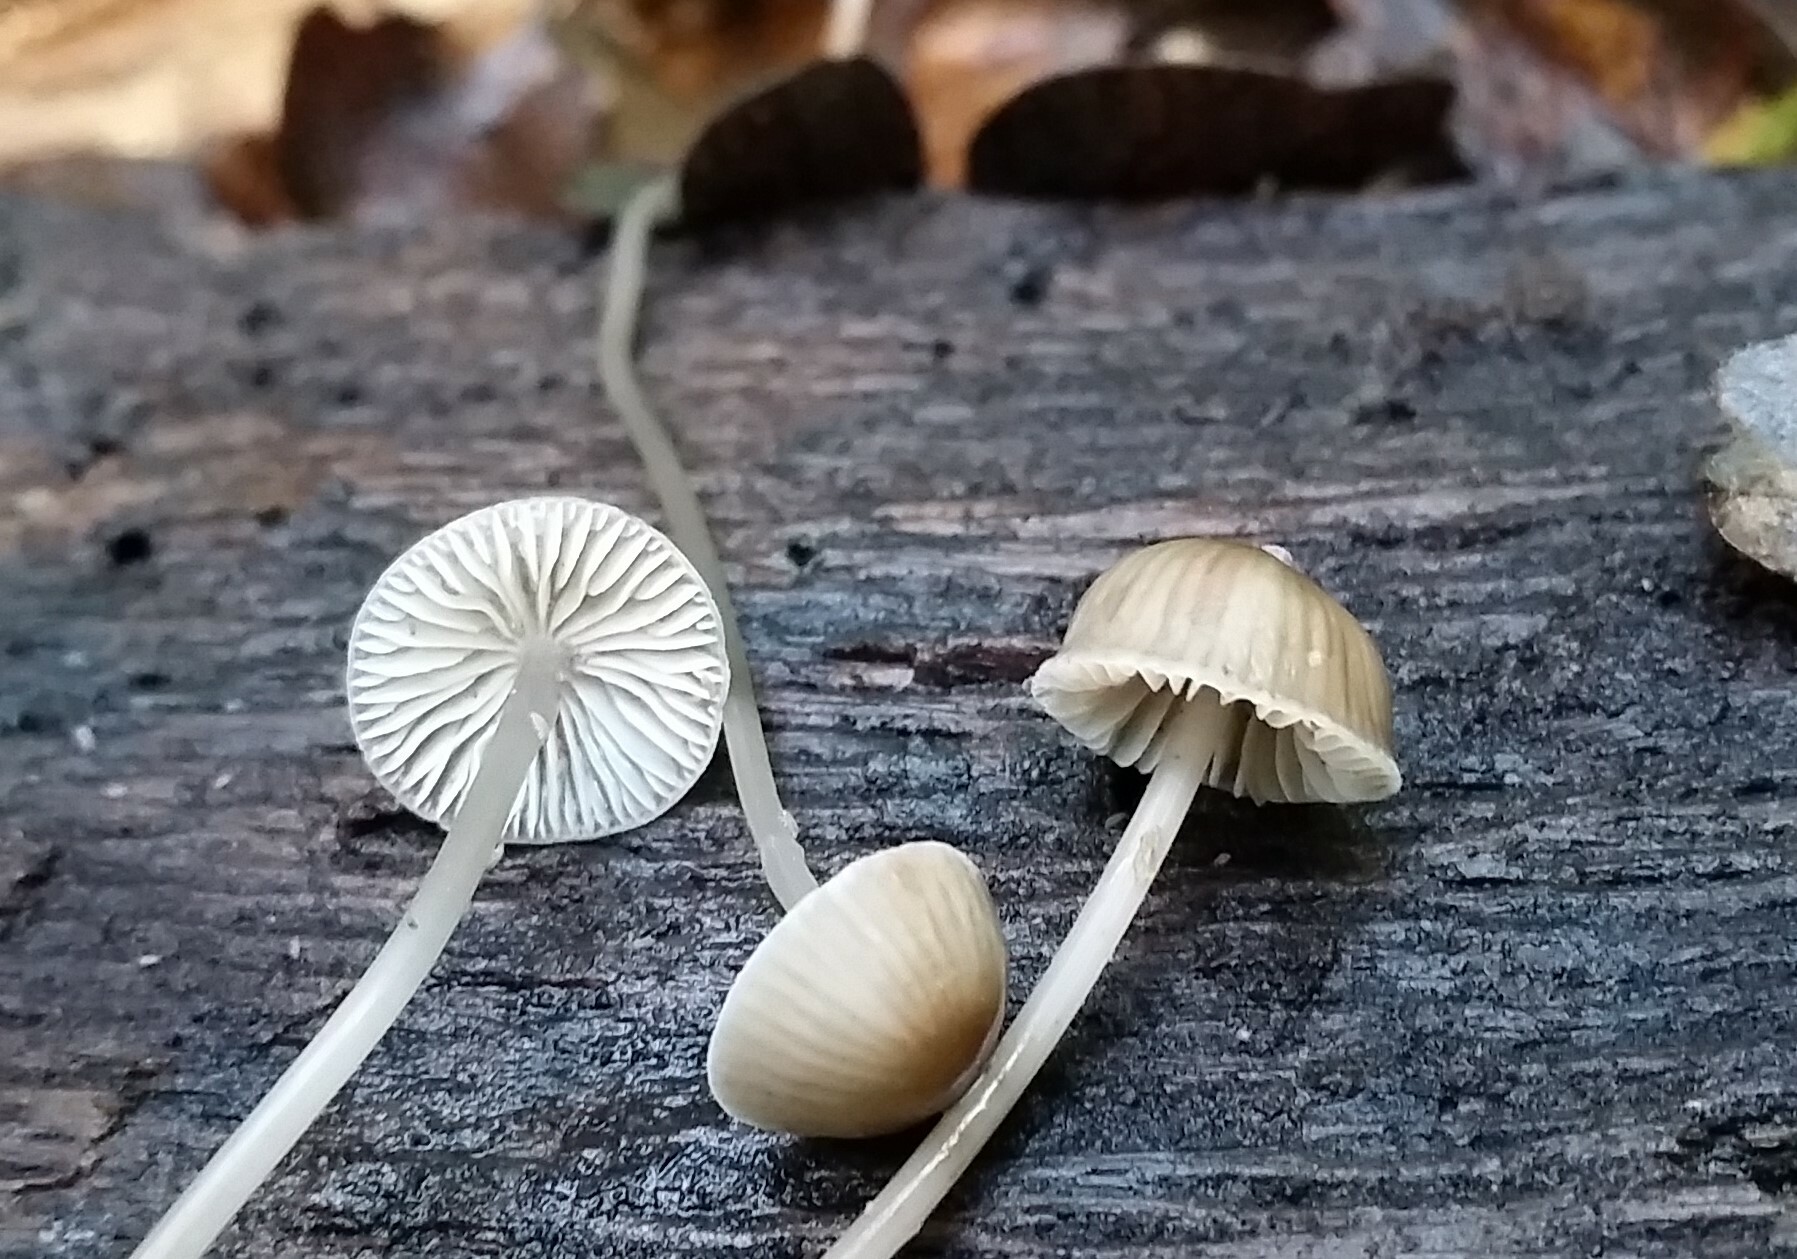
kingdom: Fungi
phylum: Basidiomycota
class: Agaricomycetes
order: Agaricales
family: Porotheleaceae
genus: Phloeomana
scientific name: Phloeomana speirea
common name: Bark bonnet
